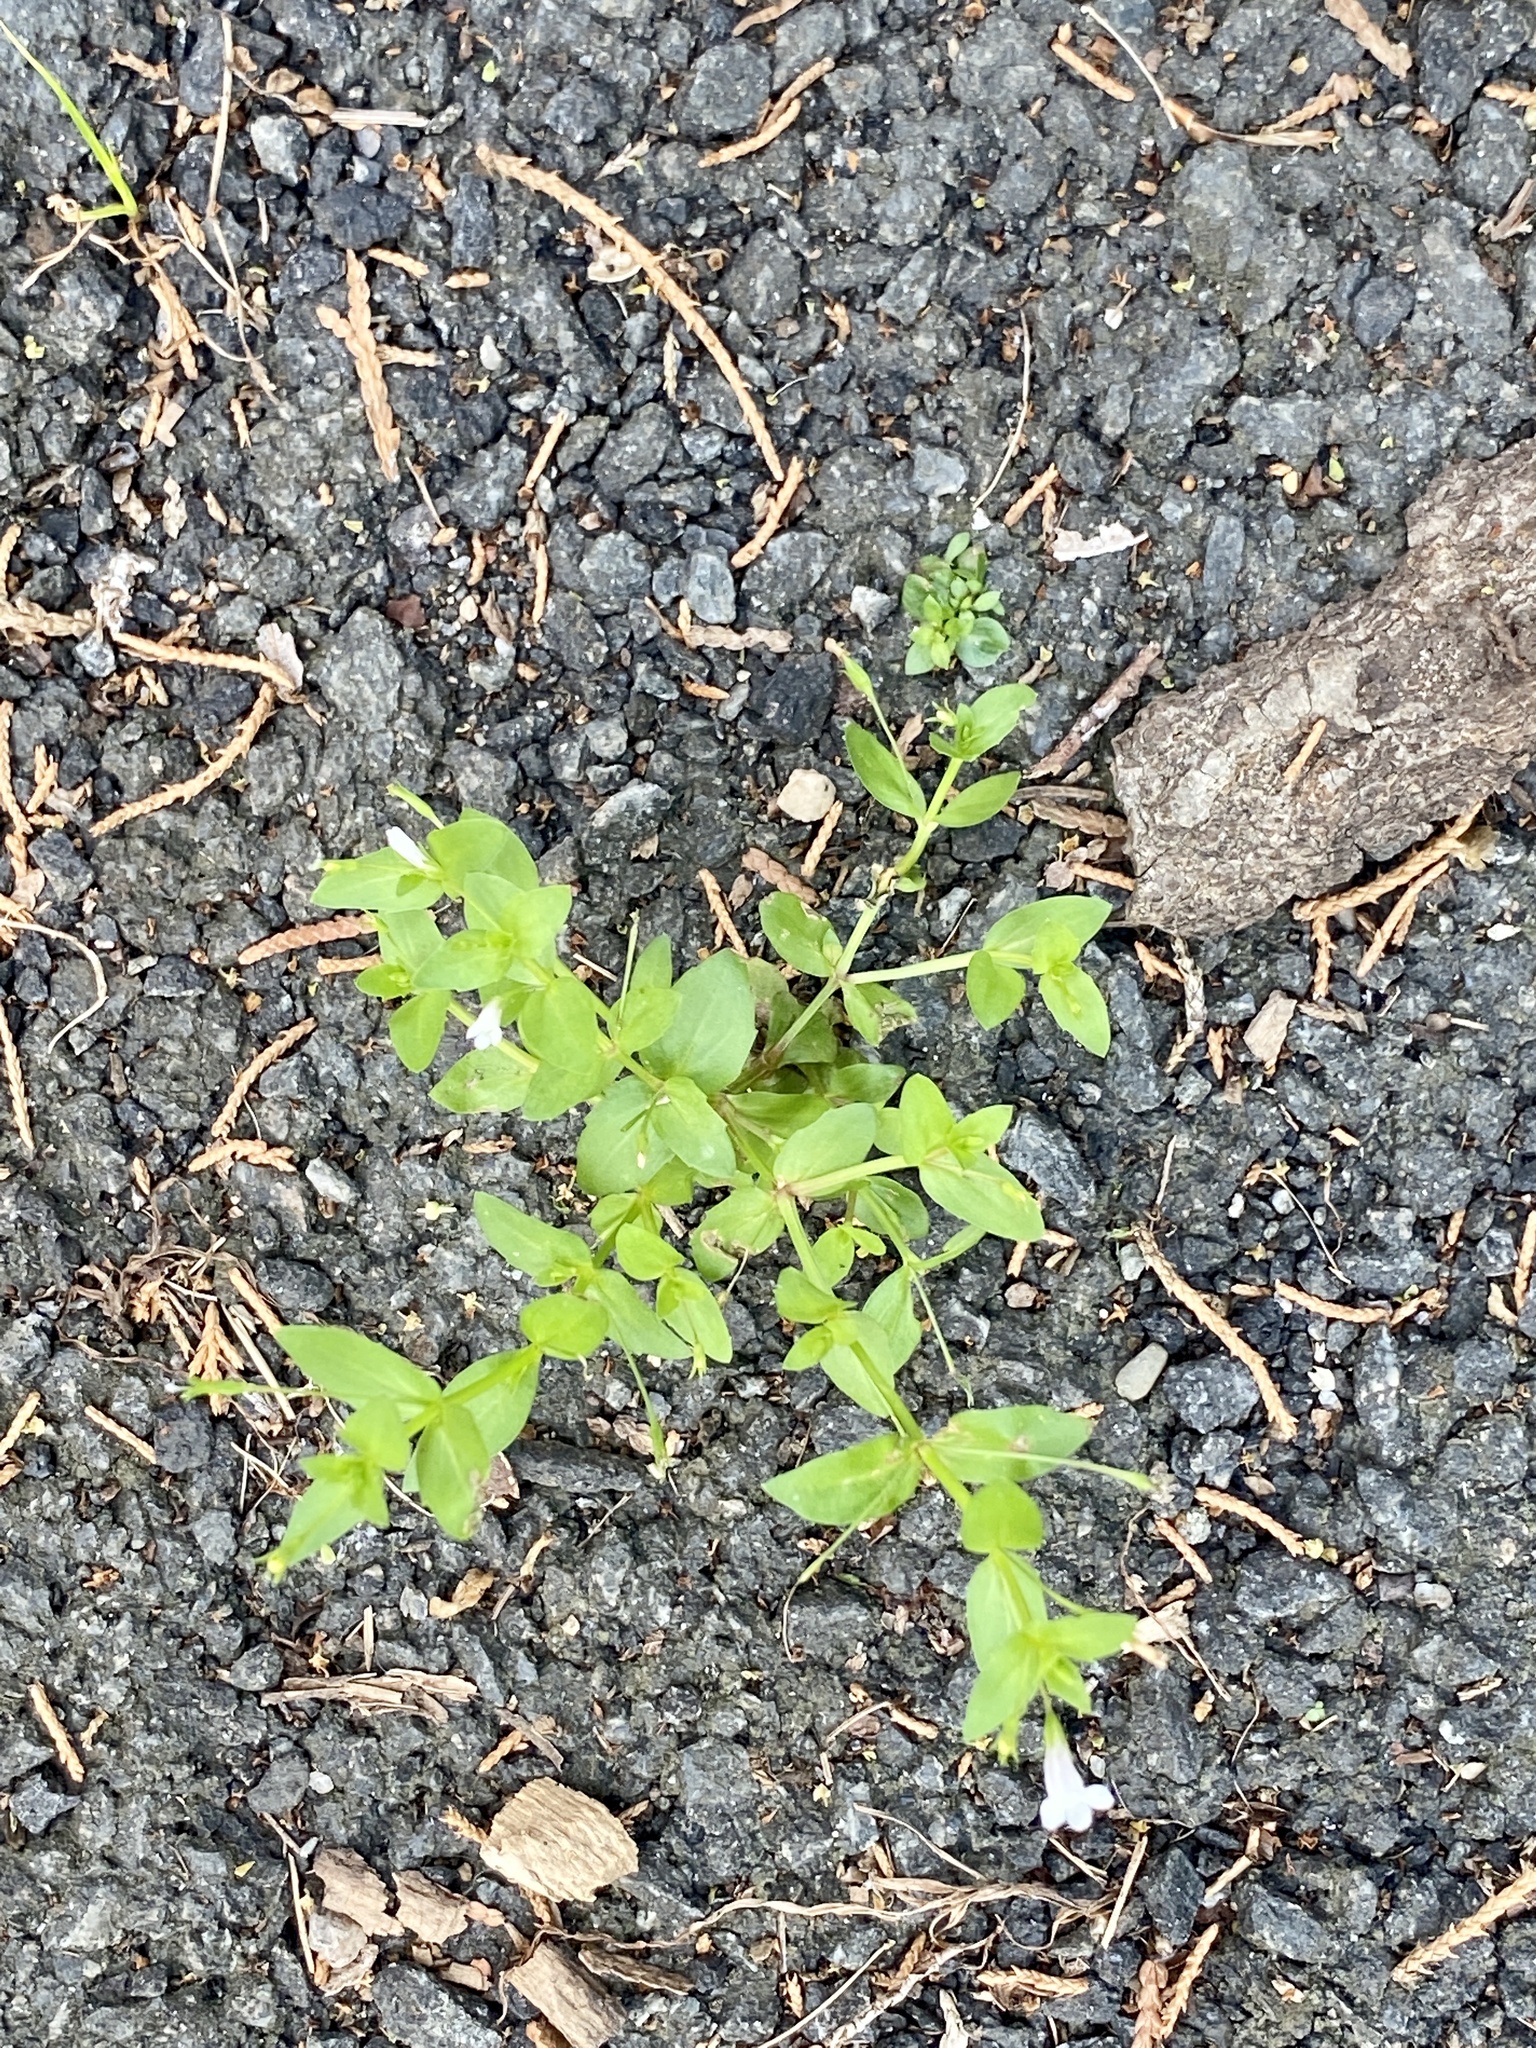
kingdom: Plantae
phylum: Tracheophyta
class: Magnoliopsida
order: Lamiales
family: Linderniaceae
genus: Lindernia
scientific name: Lindernia dubia
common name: Annual false pimpernel
